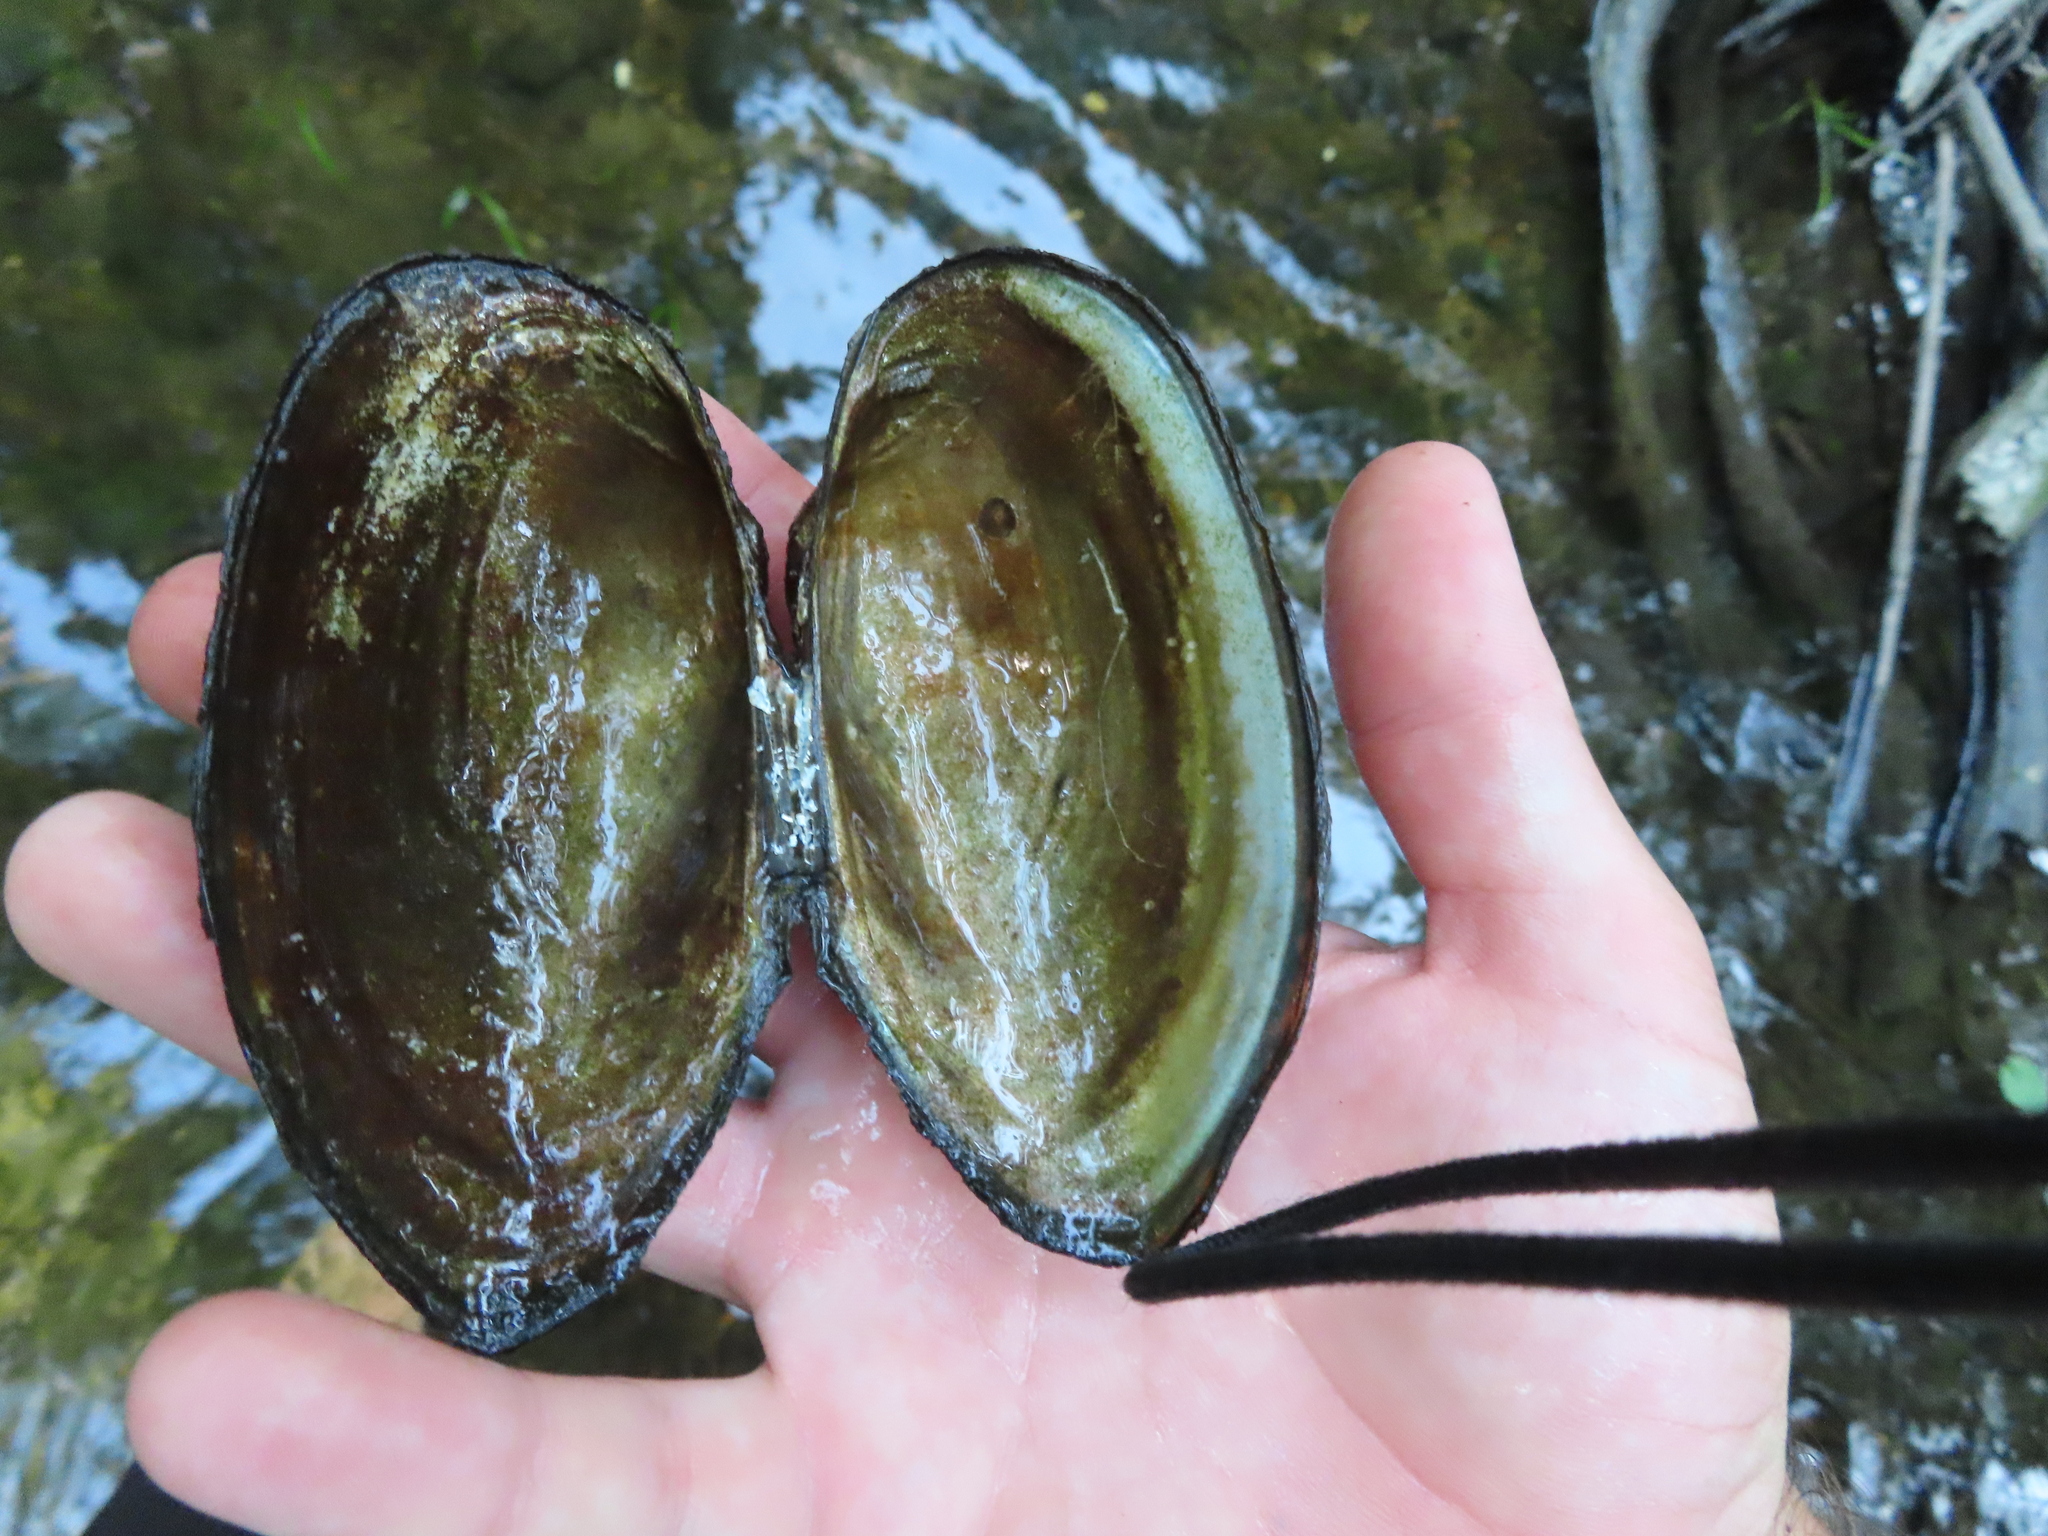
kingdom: Animalia
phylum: Mollusca
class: Bivalvia
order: Unionida
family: Unionidae
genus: Pyganodon
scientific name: Pyganodon grandis
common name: Giant floater
